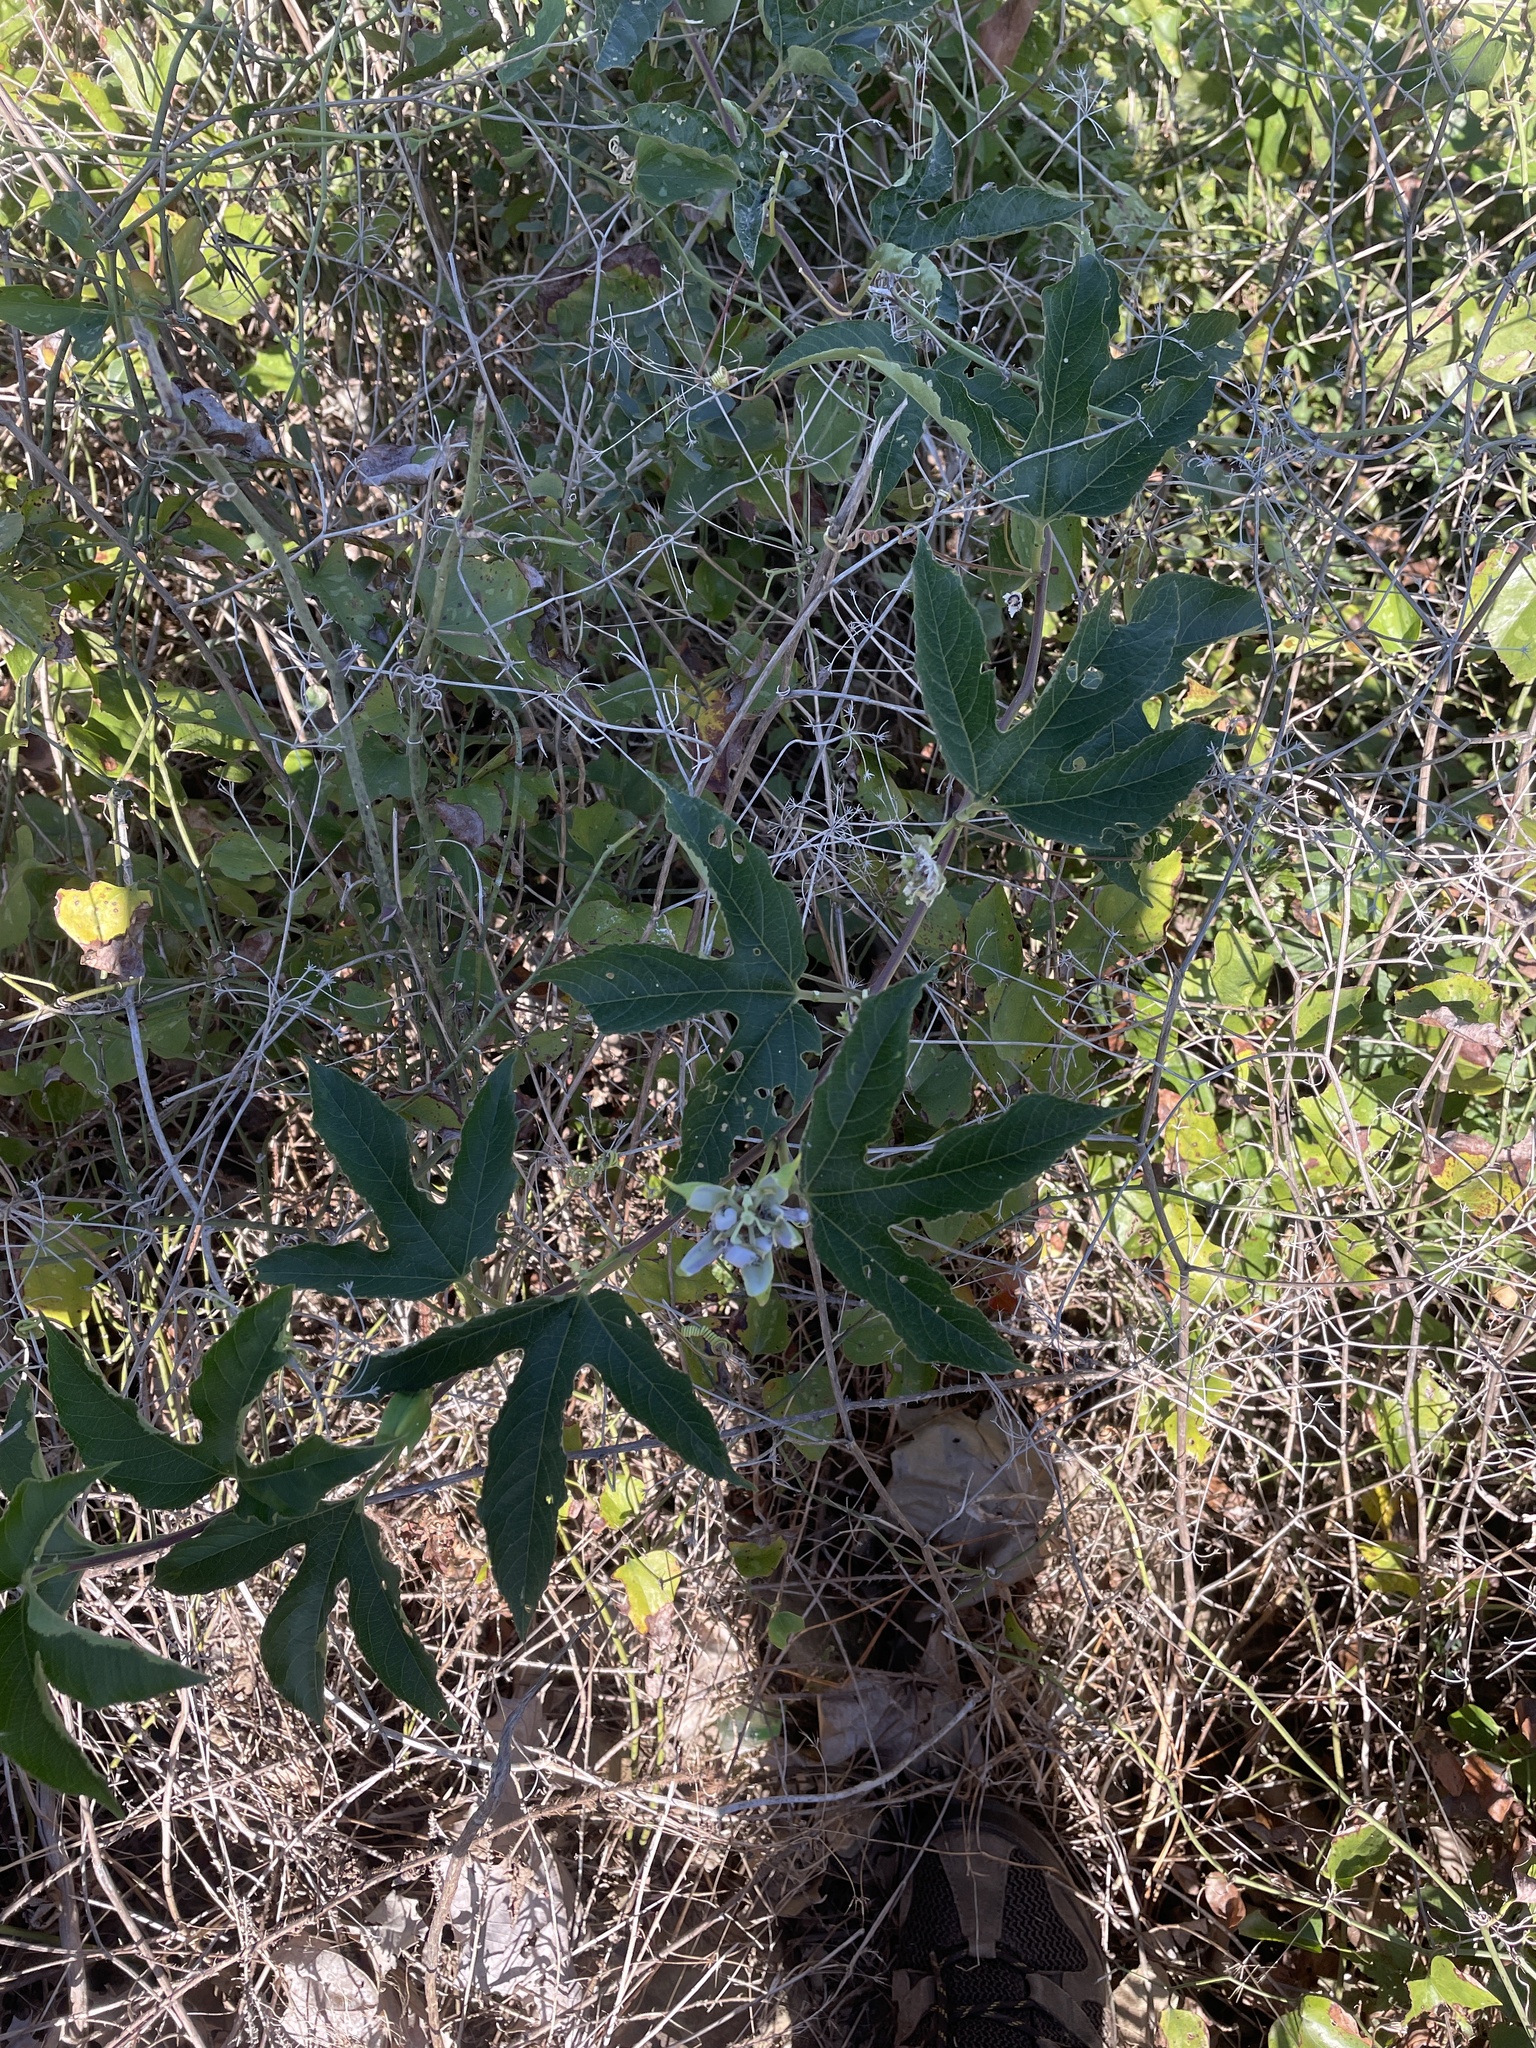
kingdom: Plantae
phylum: Tracheophyta
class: Magnoliopsida
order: Malpighiales
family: Passifloraceae
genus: Passiflora
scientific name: Passiflora incarnata
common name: Apricot-vine
